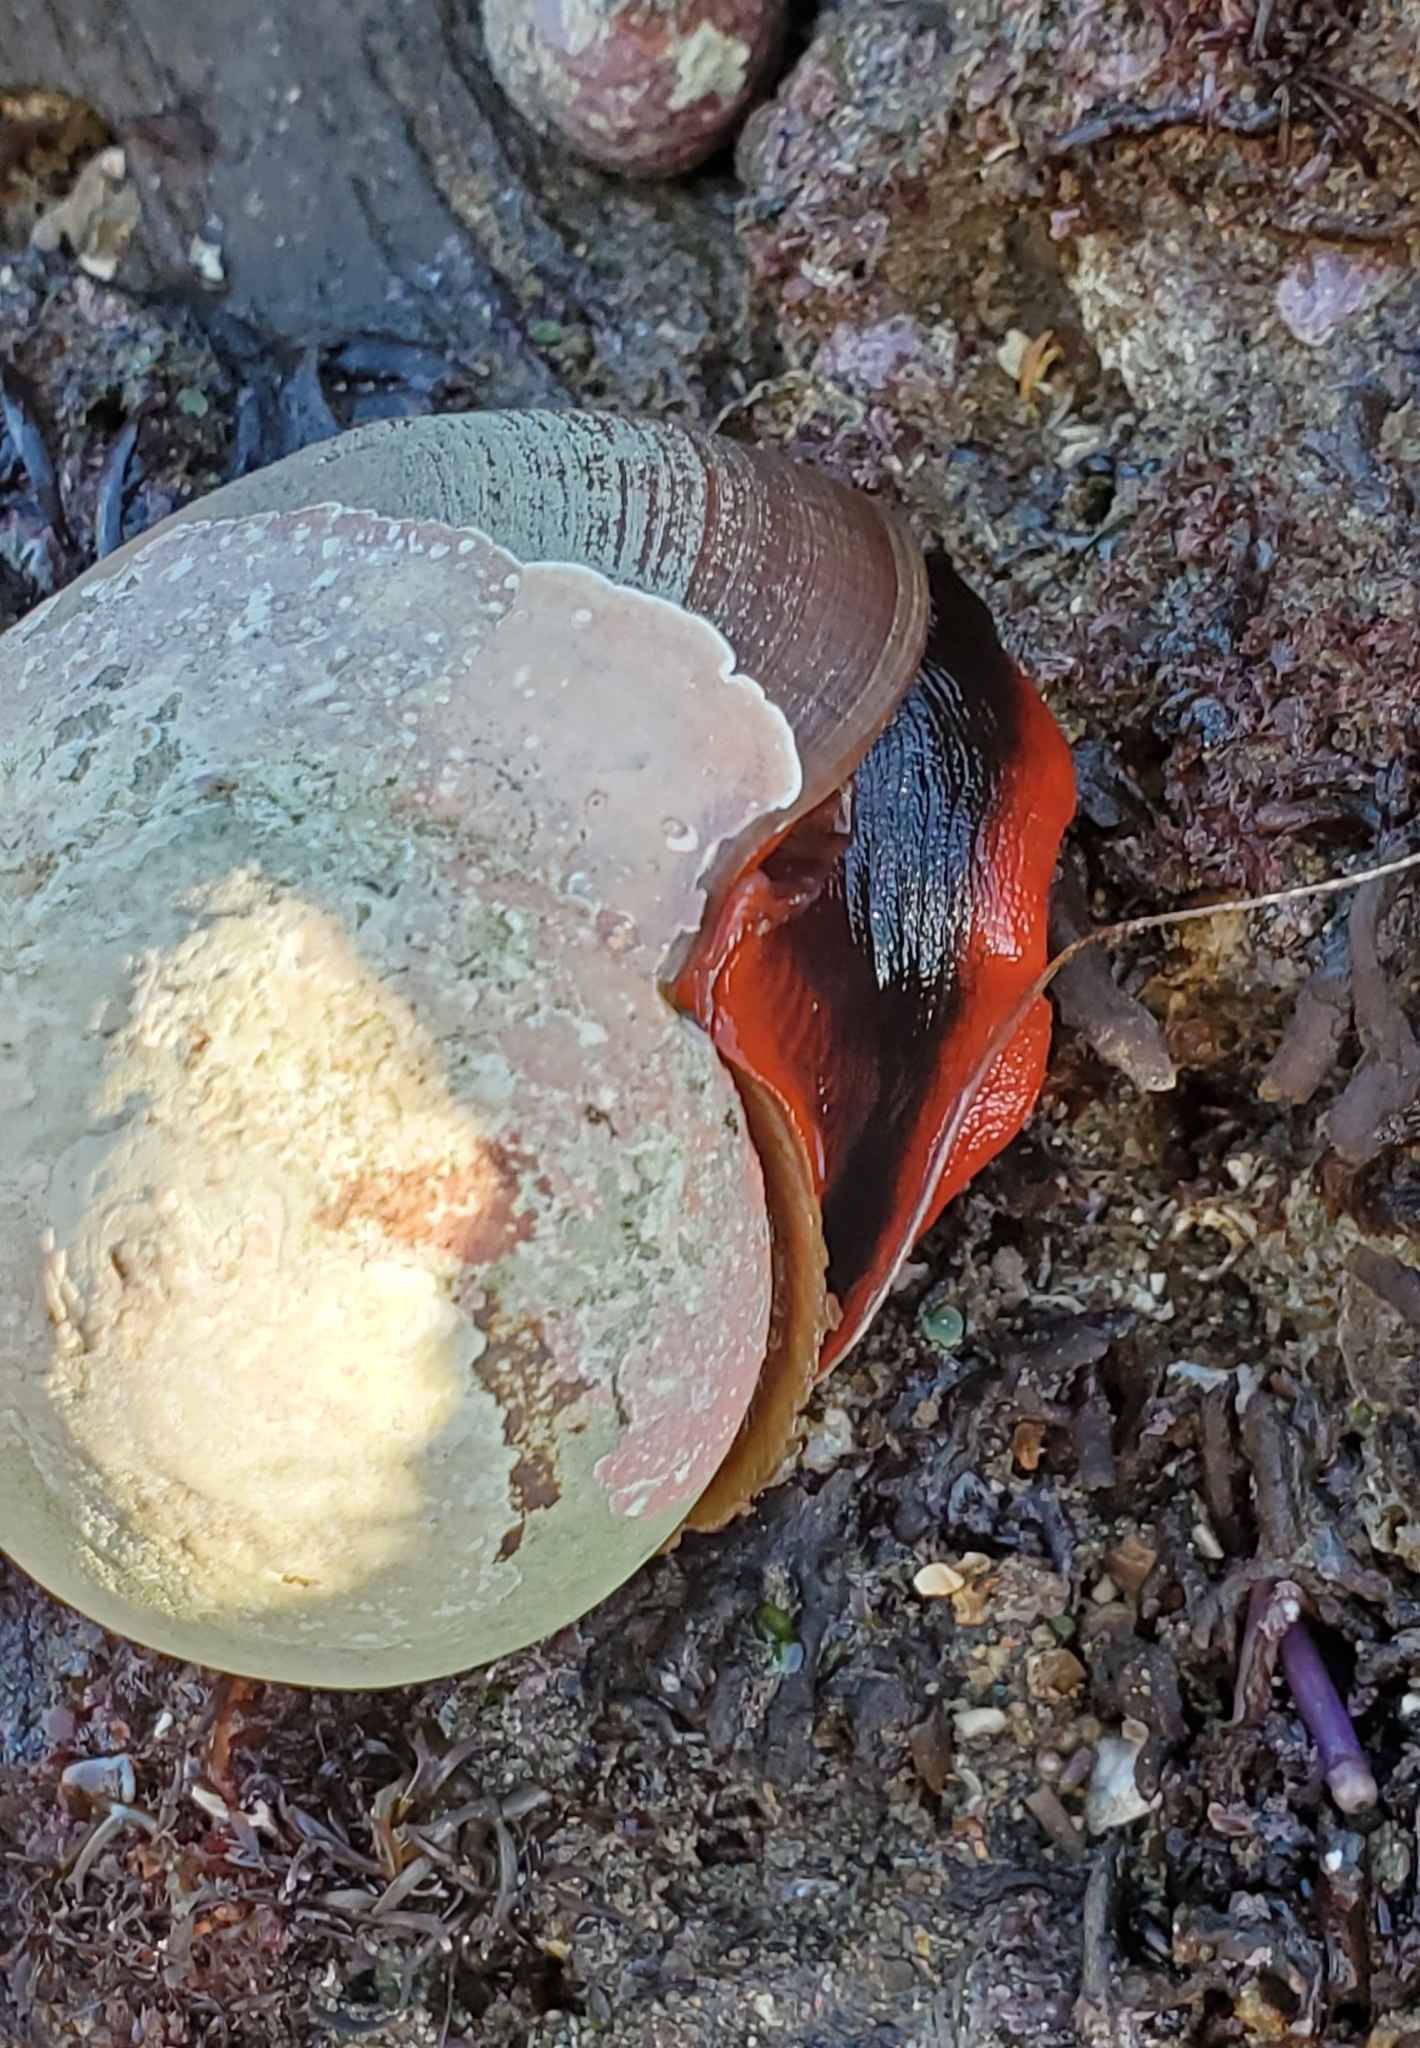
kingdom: Animalia
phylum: Mollusca
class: Gastropoda
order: Trochida
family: Tegulidae
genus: Norrisia
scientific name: Norrisia norrisii
